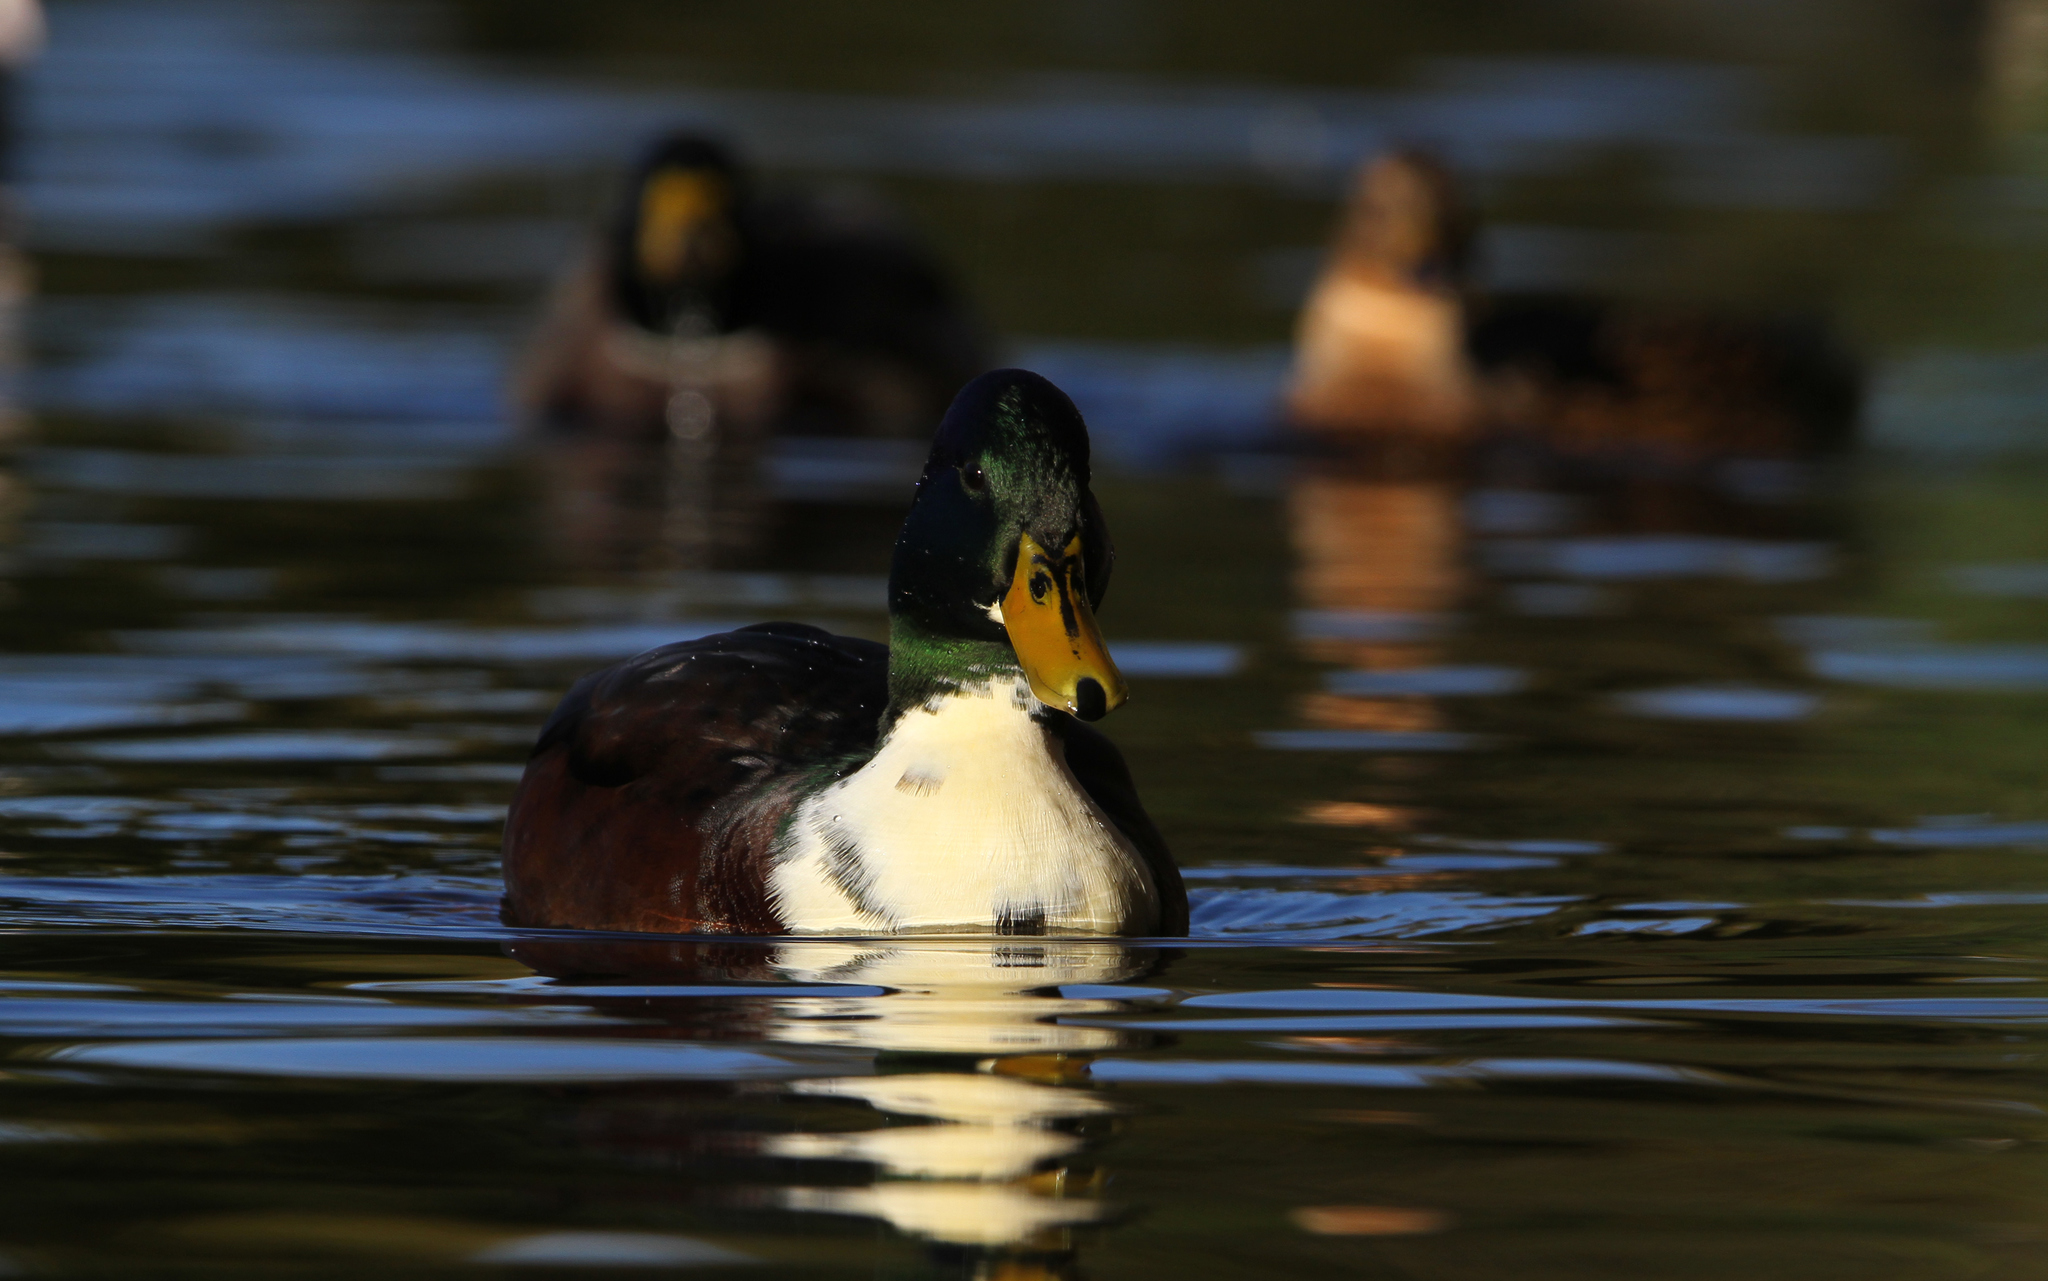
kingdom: Animalia
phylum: Chordata
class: Aves
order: Anseriformes
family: Anatidae
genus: Anas
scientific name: Anas platyrhynchos
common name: Mallard
